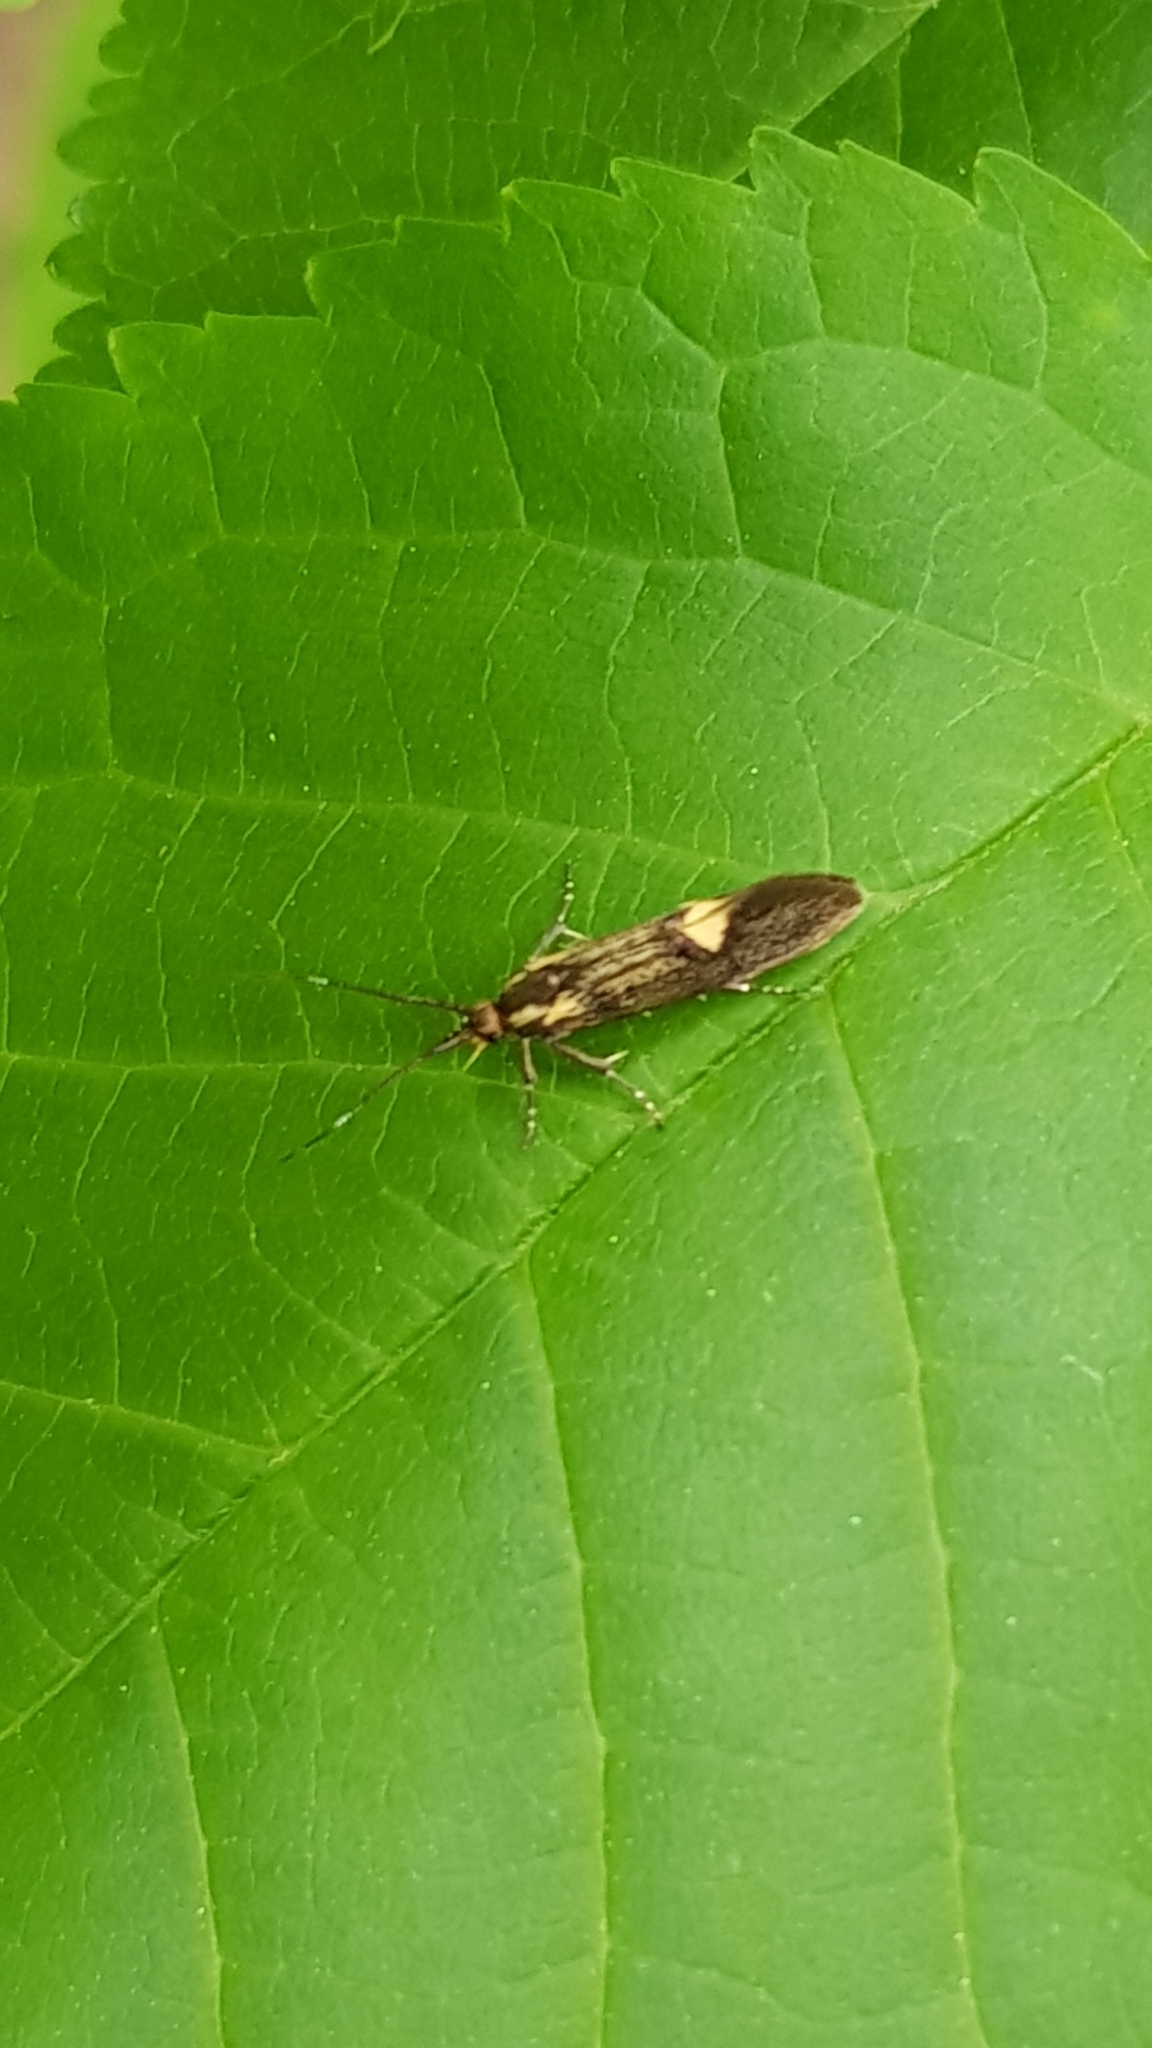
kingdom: Animalia
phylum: Arthropoda
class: Insecta
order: Lepidoptera
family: Oecophoridae
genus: Dafa
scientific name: Dafa Esperia sulphurella
